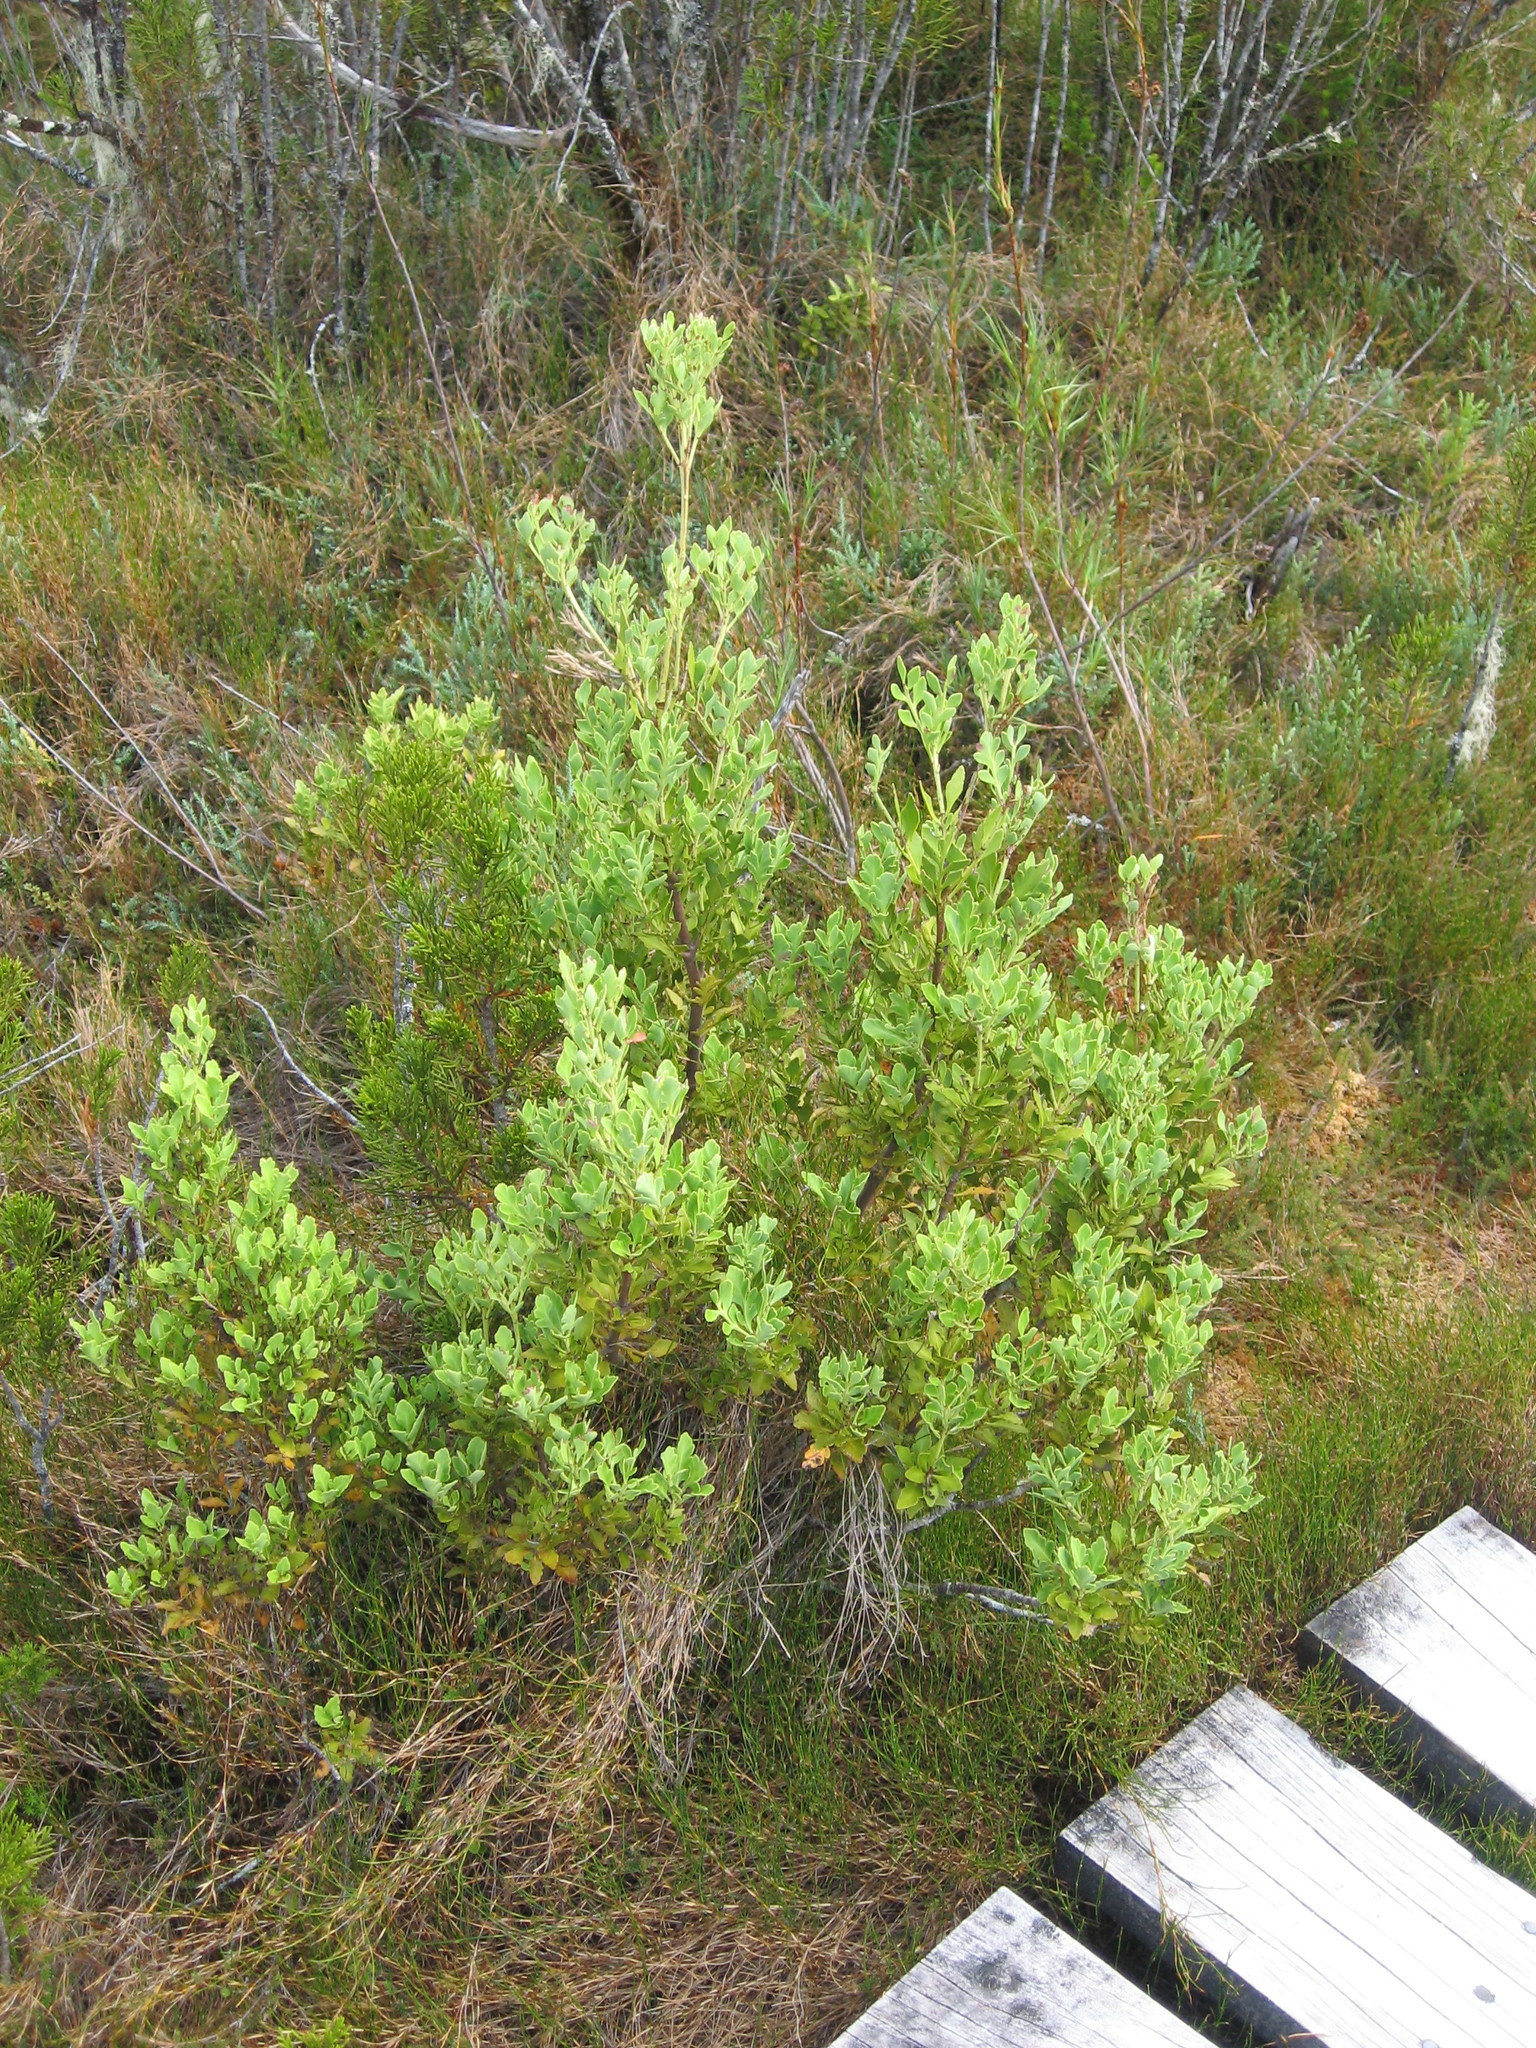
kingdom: Plantae
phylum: Tracheophyta
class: Pinopsida
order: Pinales
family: Phyllocladaceae
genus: Phyllocladus
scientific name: Phyllocladus trichomanoides
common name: Celery pine
